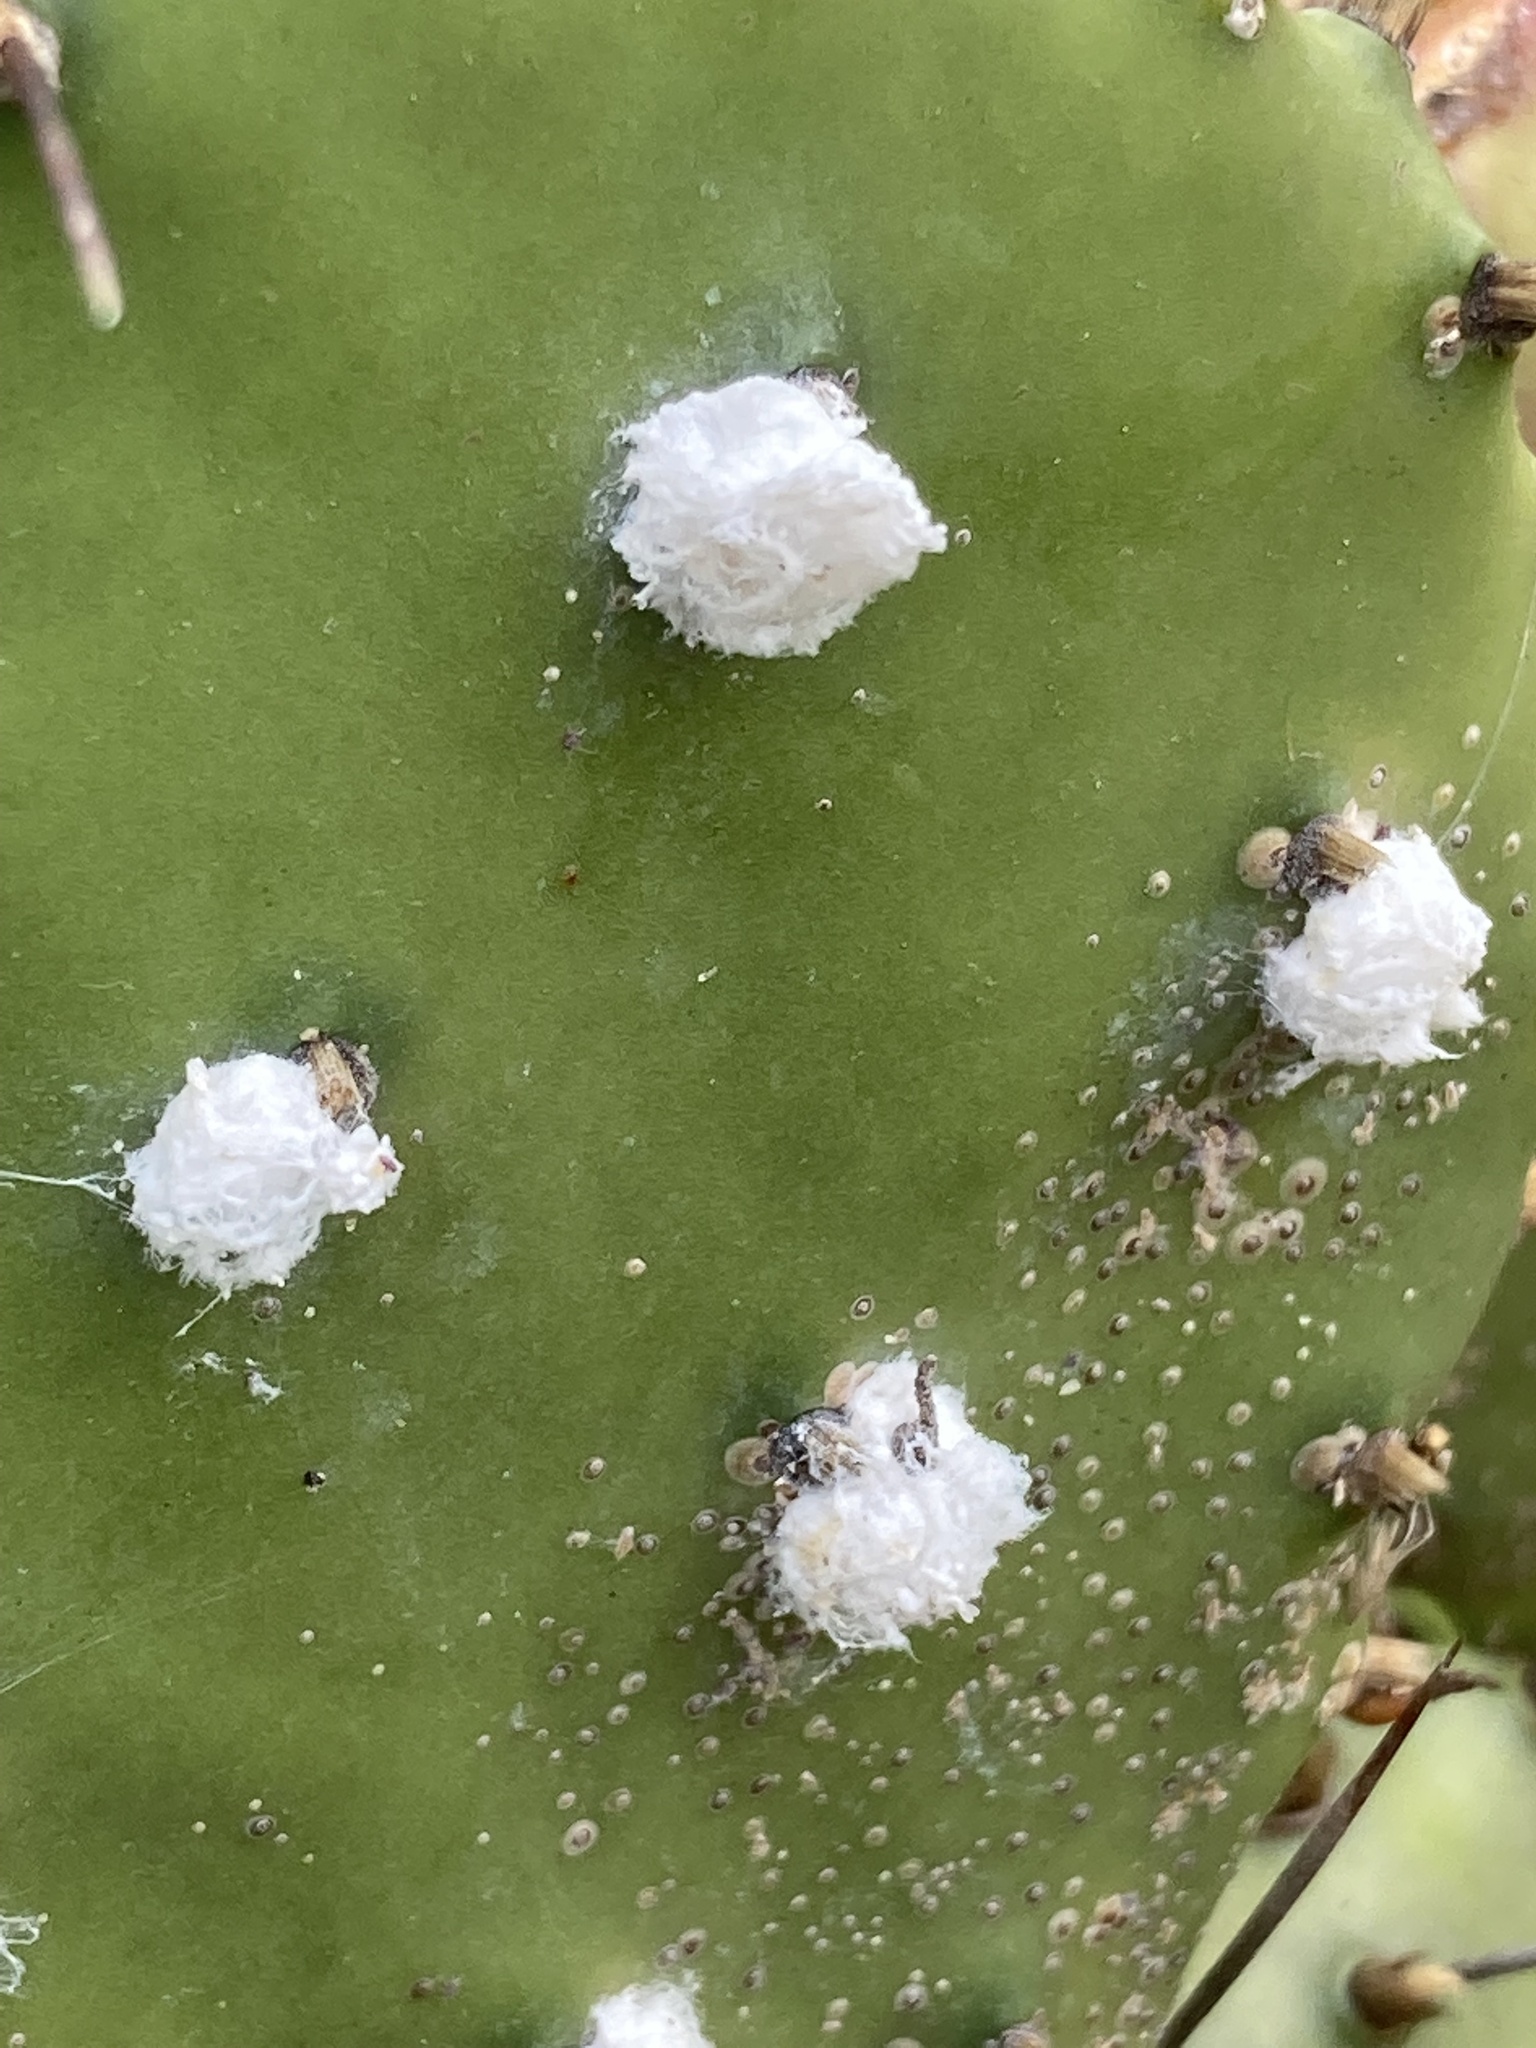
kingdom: Animalia
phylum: Arthropoda
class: Insecta
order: Hemiptera
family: Dactylopiidae
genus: Dactylopius
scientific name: Dactylopius confusus
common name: California cochineal scale
